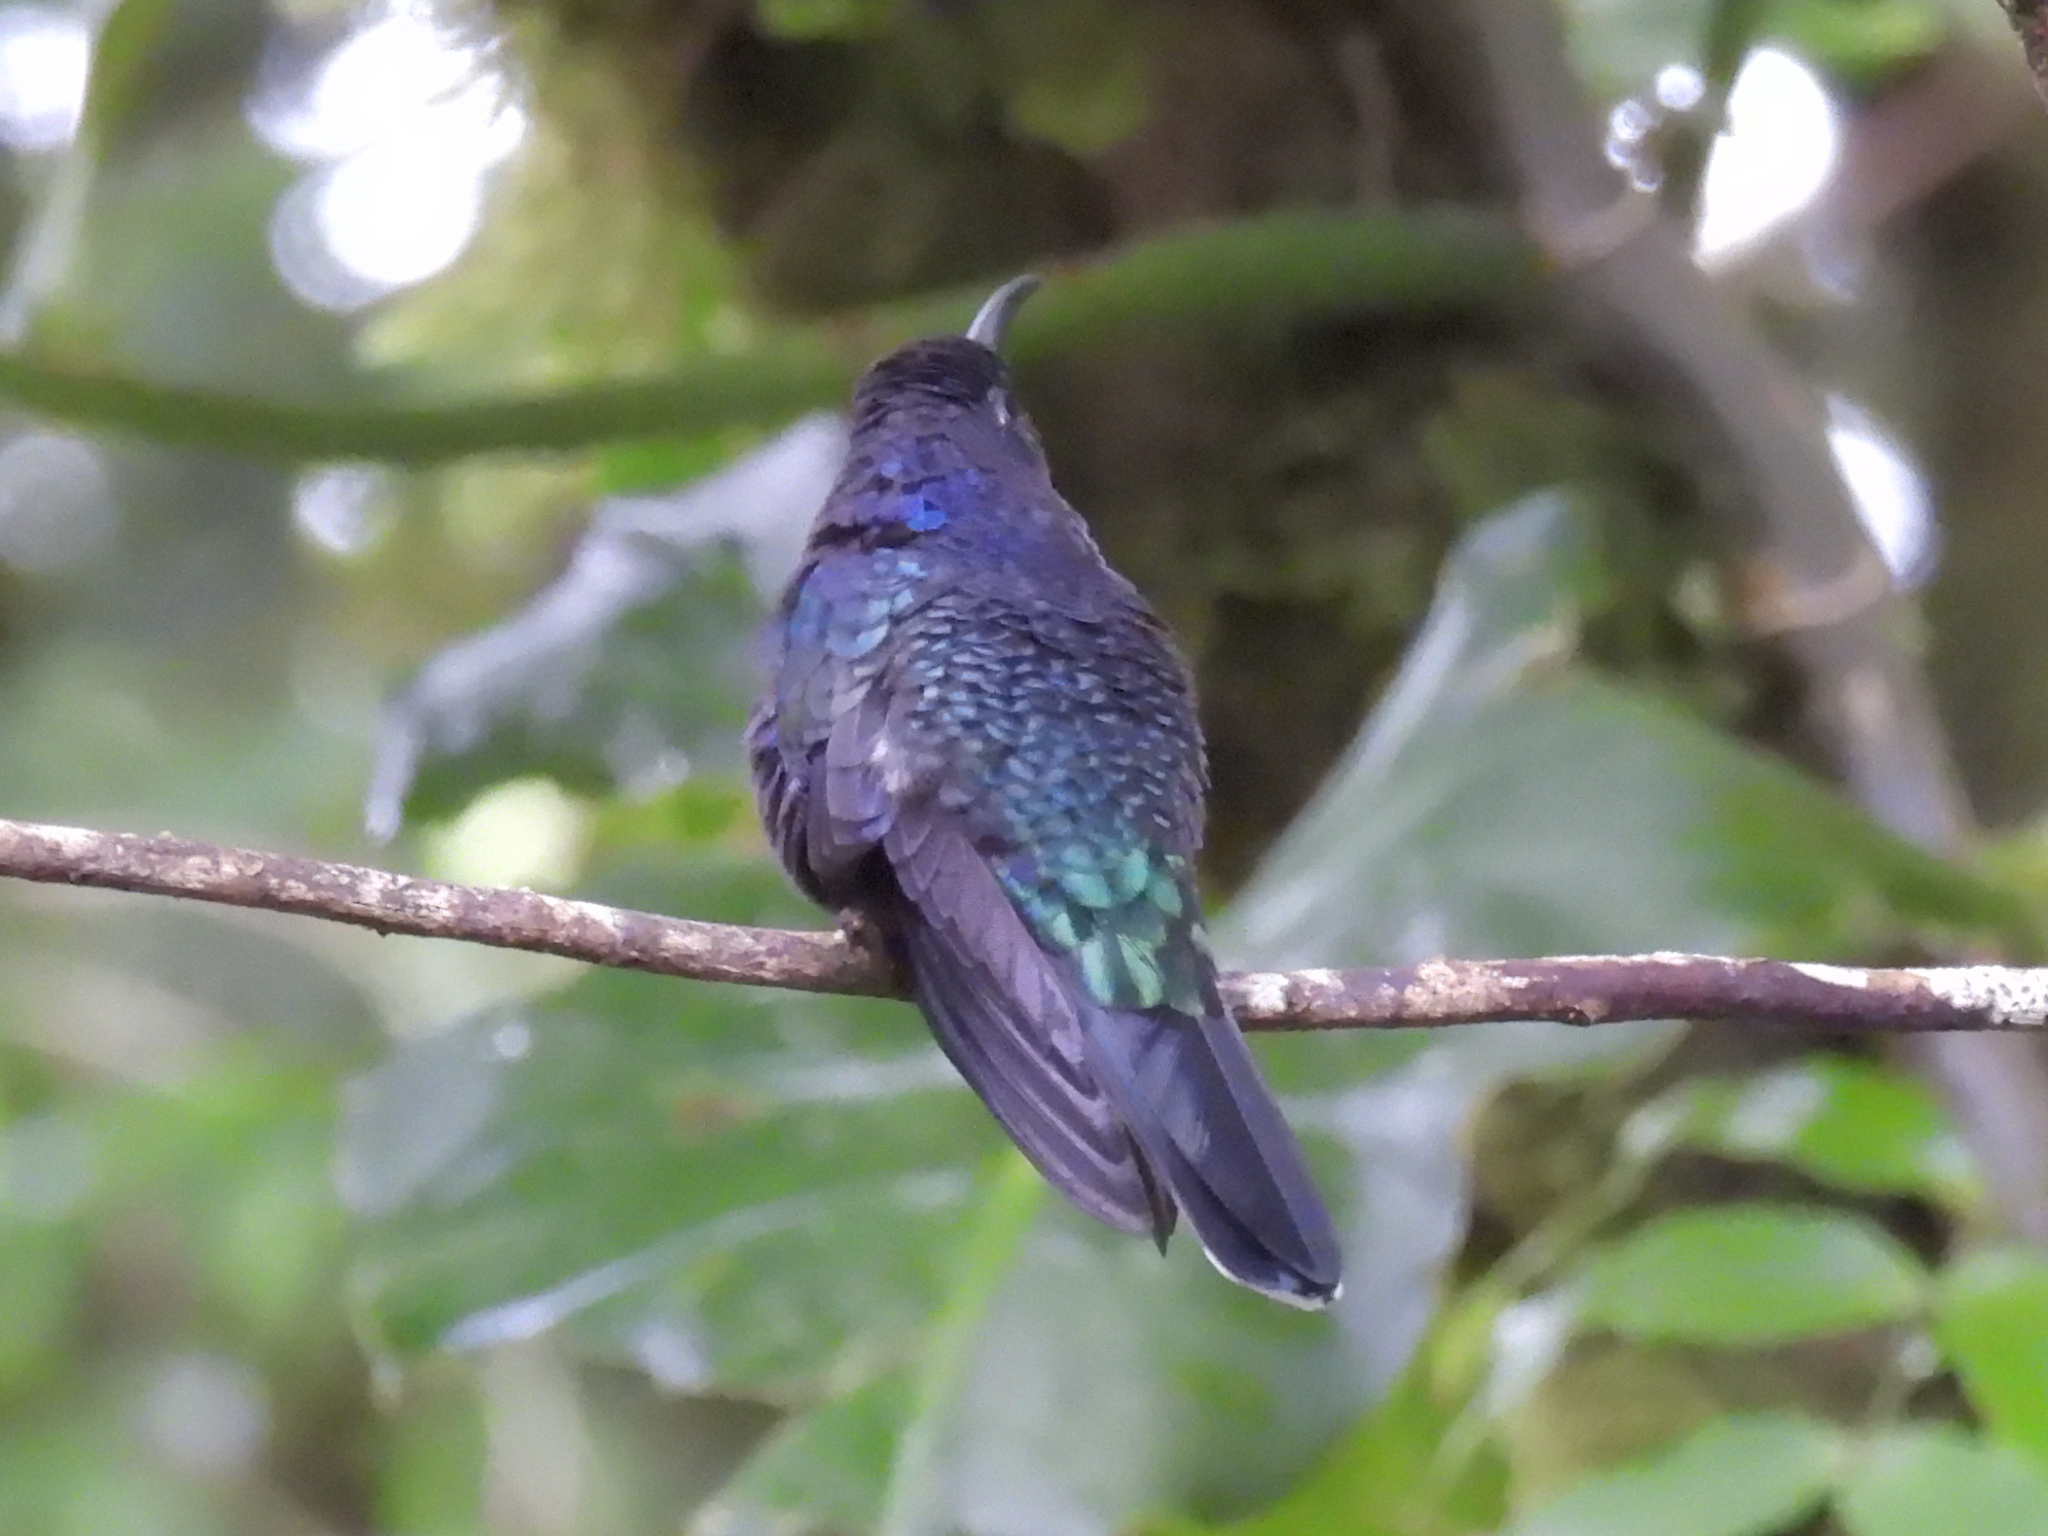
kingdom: Animalia
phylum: Chordata
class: Aves
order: Apodiformes
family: Trochilidae
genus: Campylopterus
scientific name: Campylopterus hemileucurus
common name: Violet sabrewing
